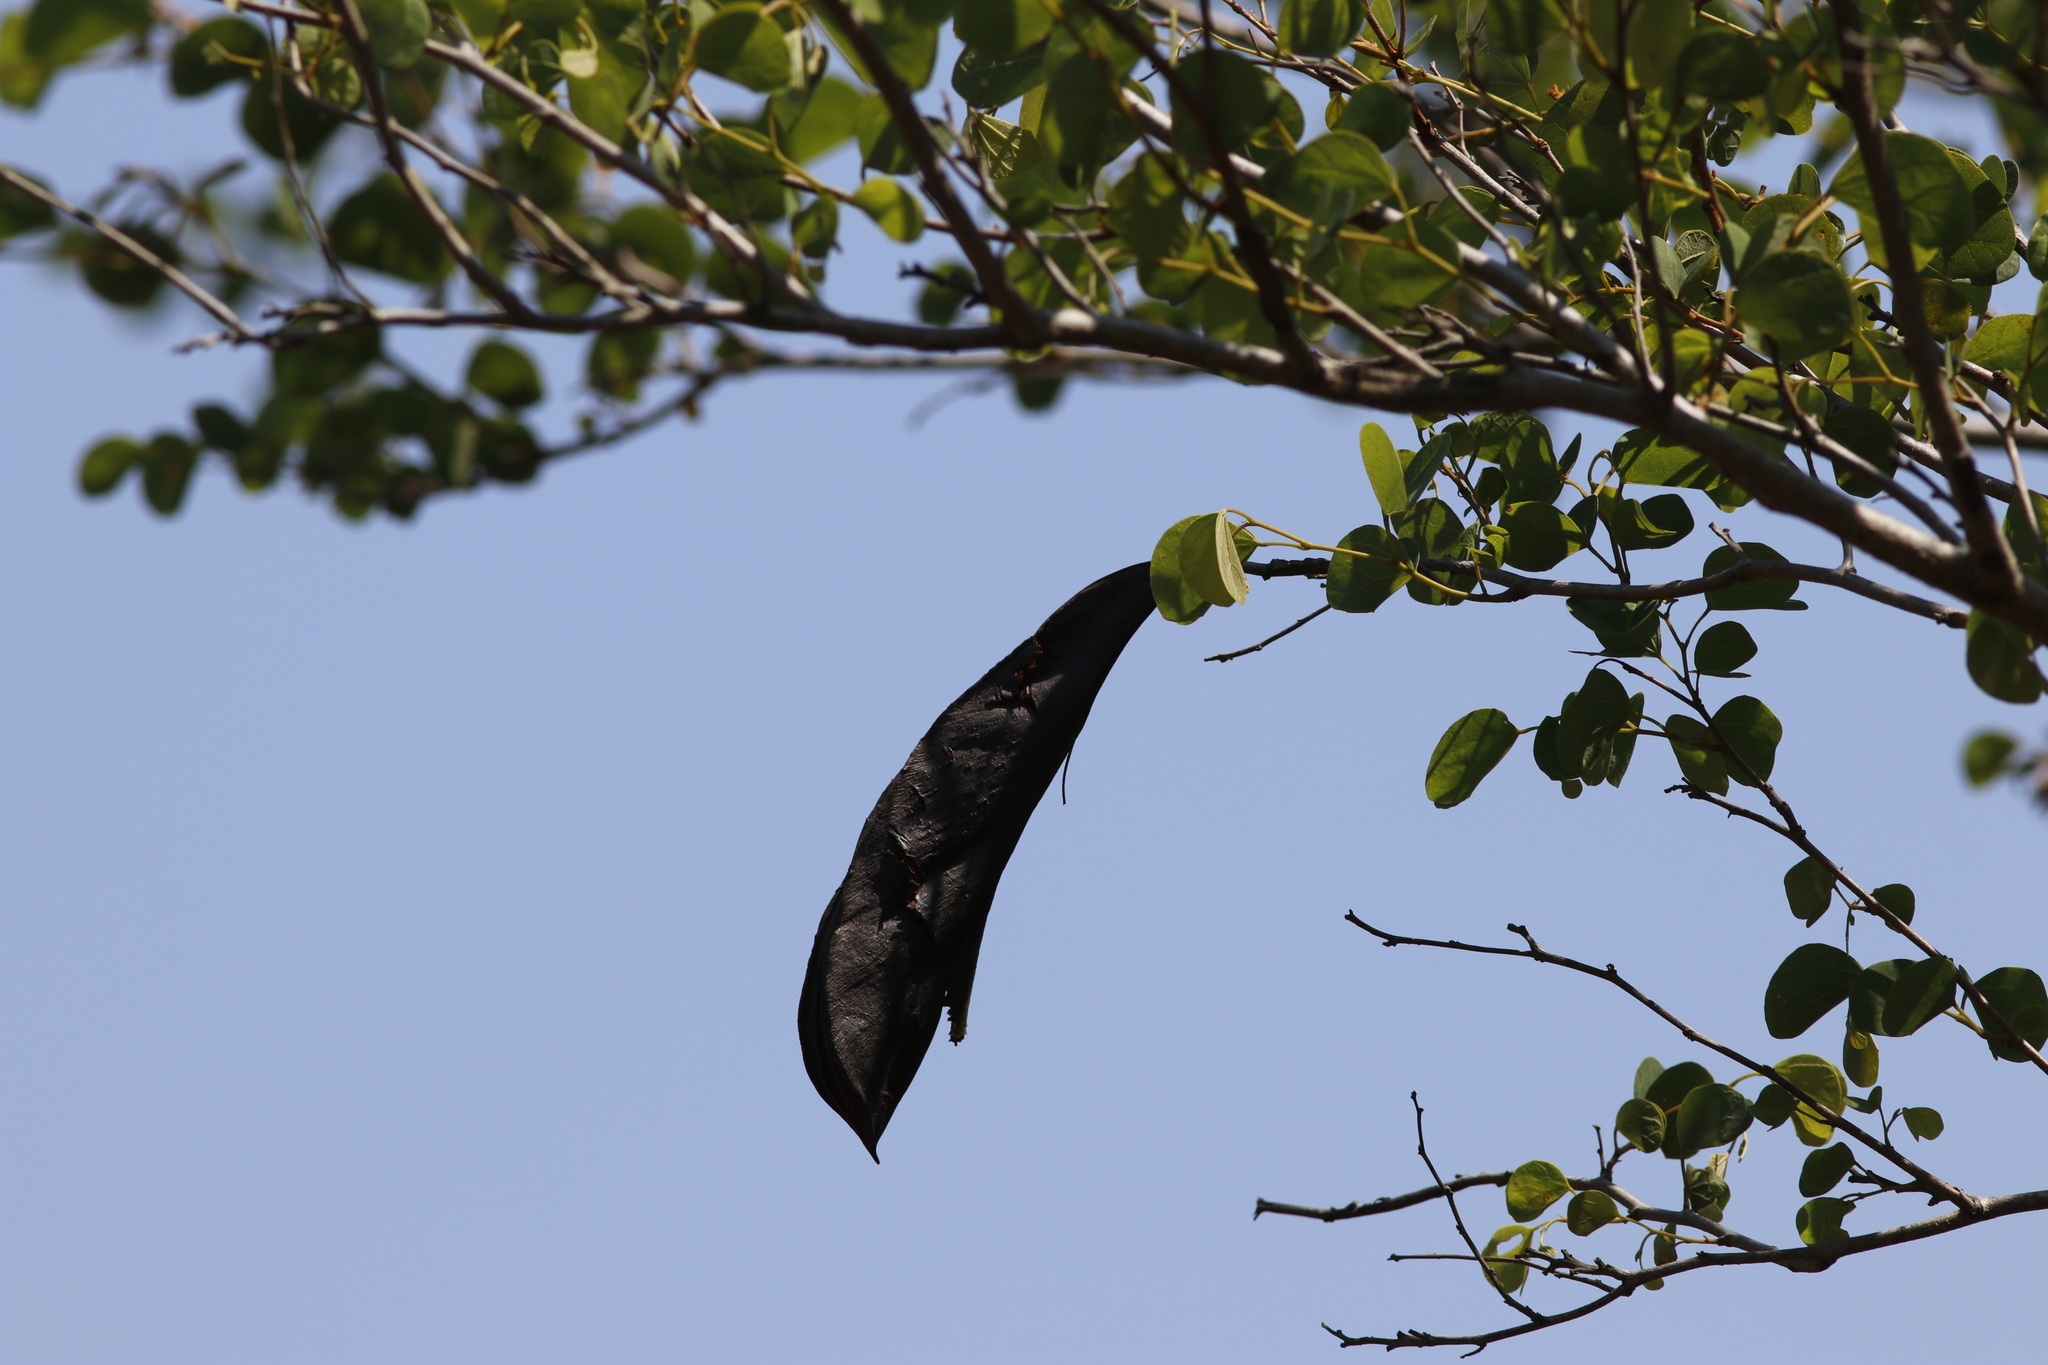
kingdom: Plantae
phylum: Tracheophyta
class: Magnoliopsida
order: Fabales
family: Fabaceae
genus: Bauhinia
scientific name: Bauhinia galpinii
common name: African plume
